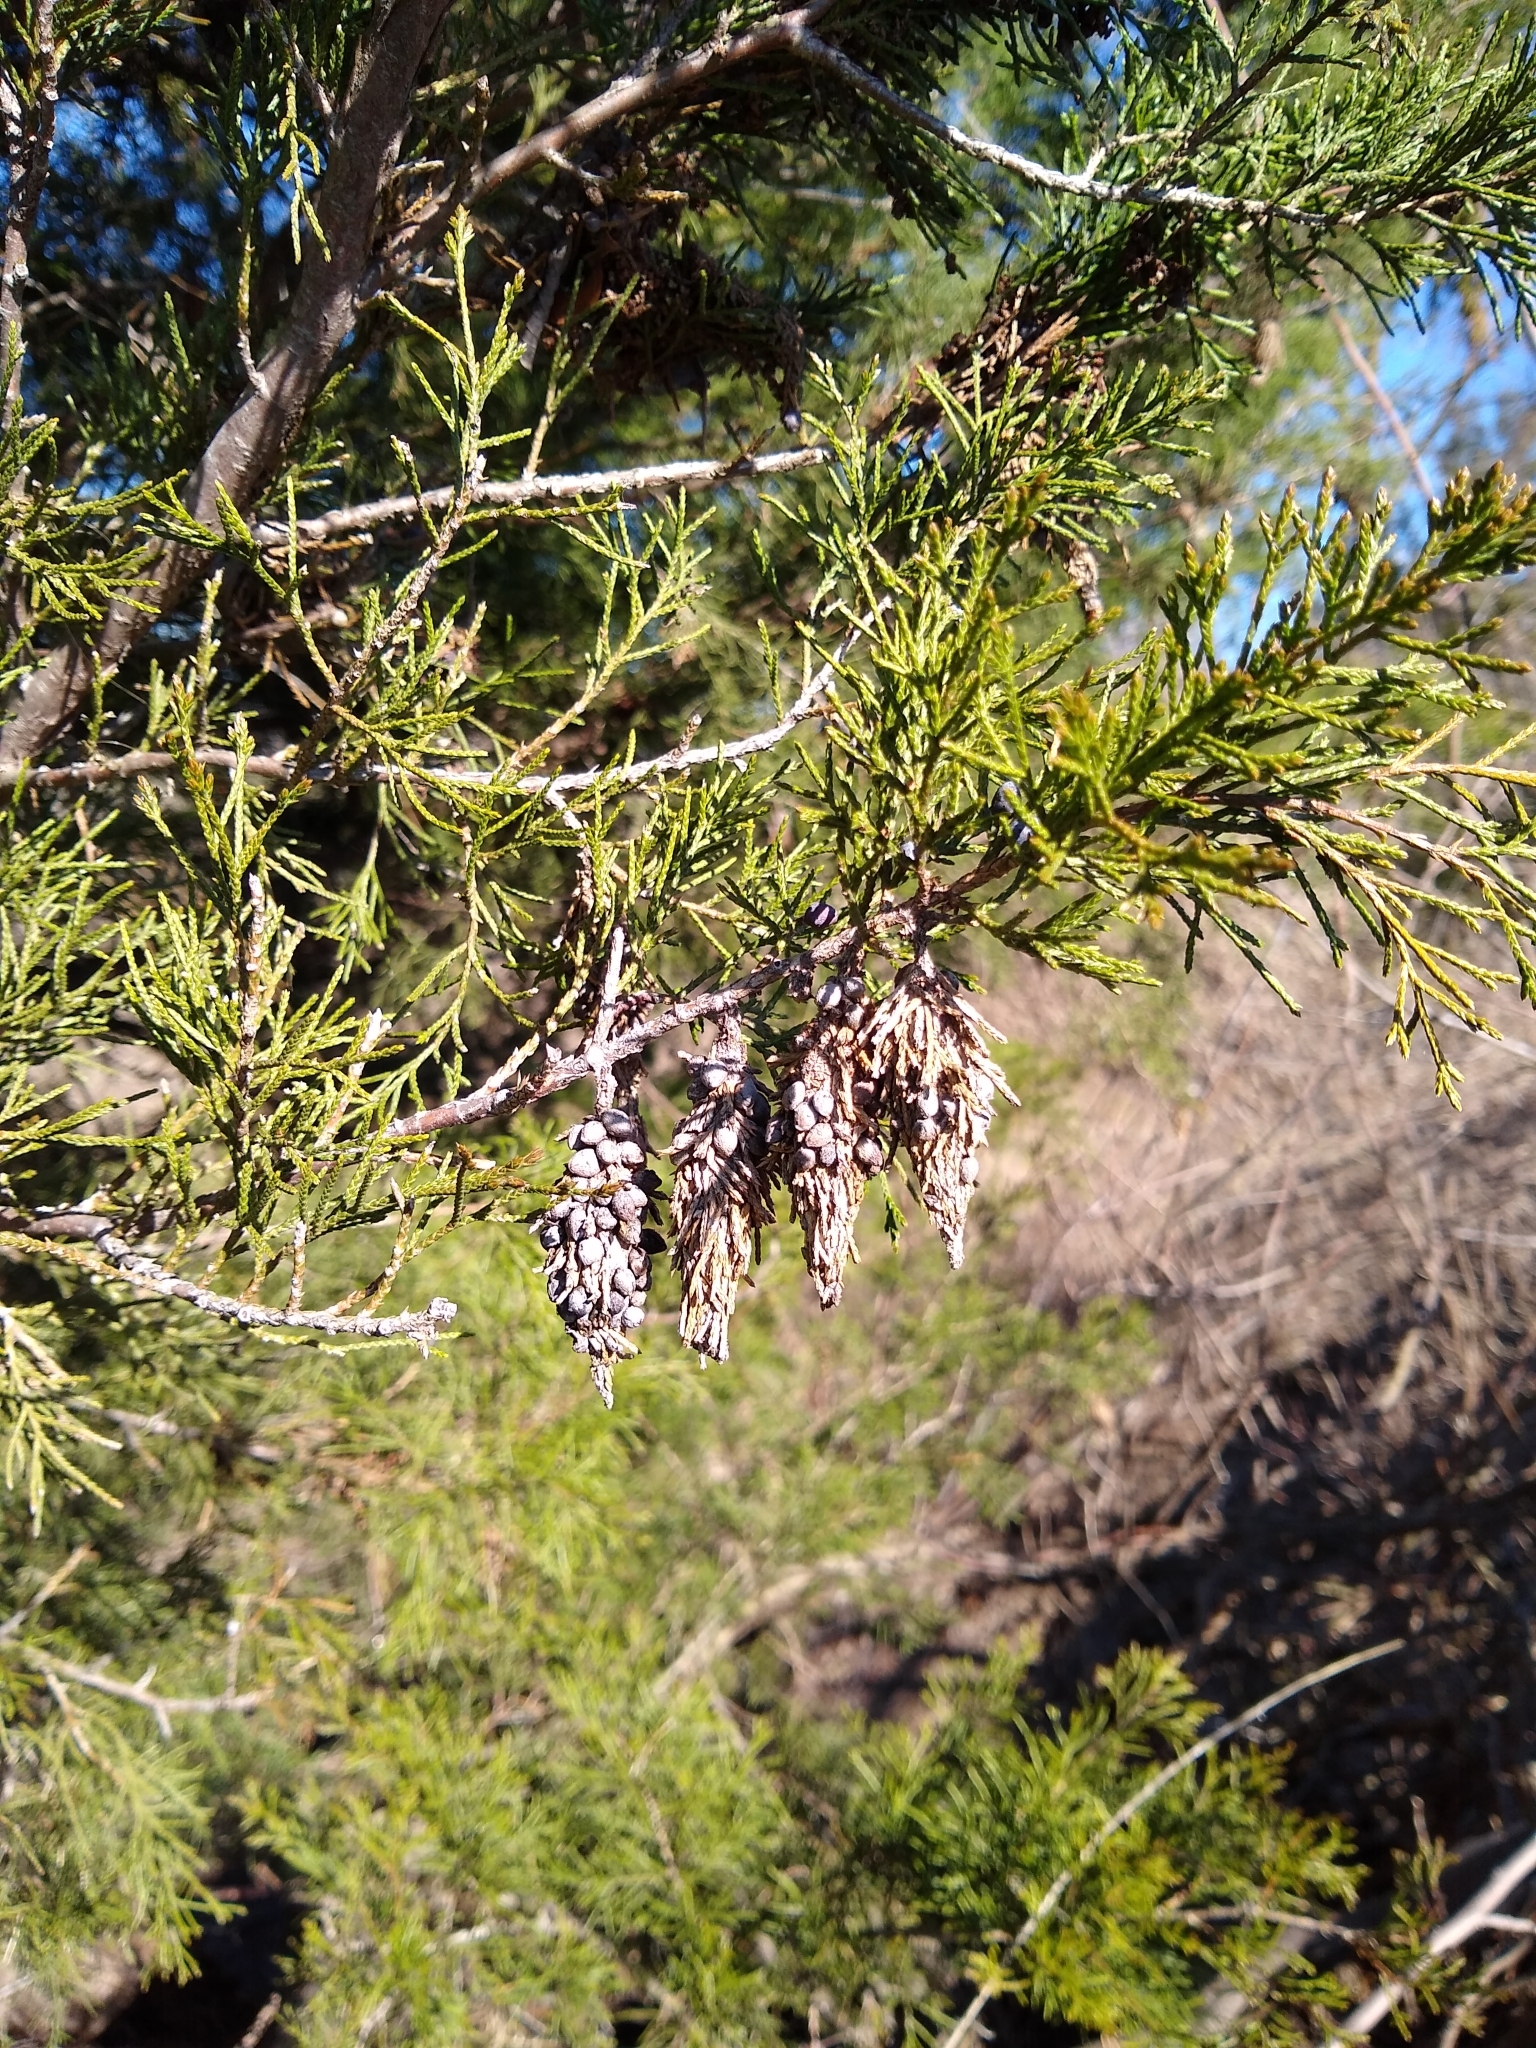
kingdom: Animalia
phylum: Arthropoda
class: Insecta
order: Lepidoptera
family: Psychidae
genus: Thyridopteryx
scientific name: Thyridopteryx ephemeraeformis
